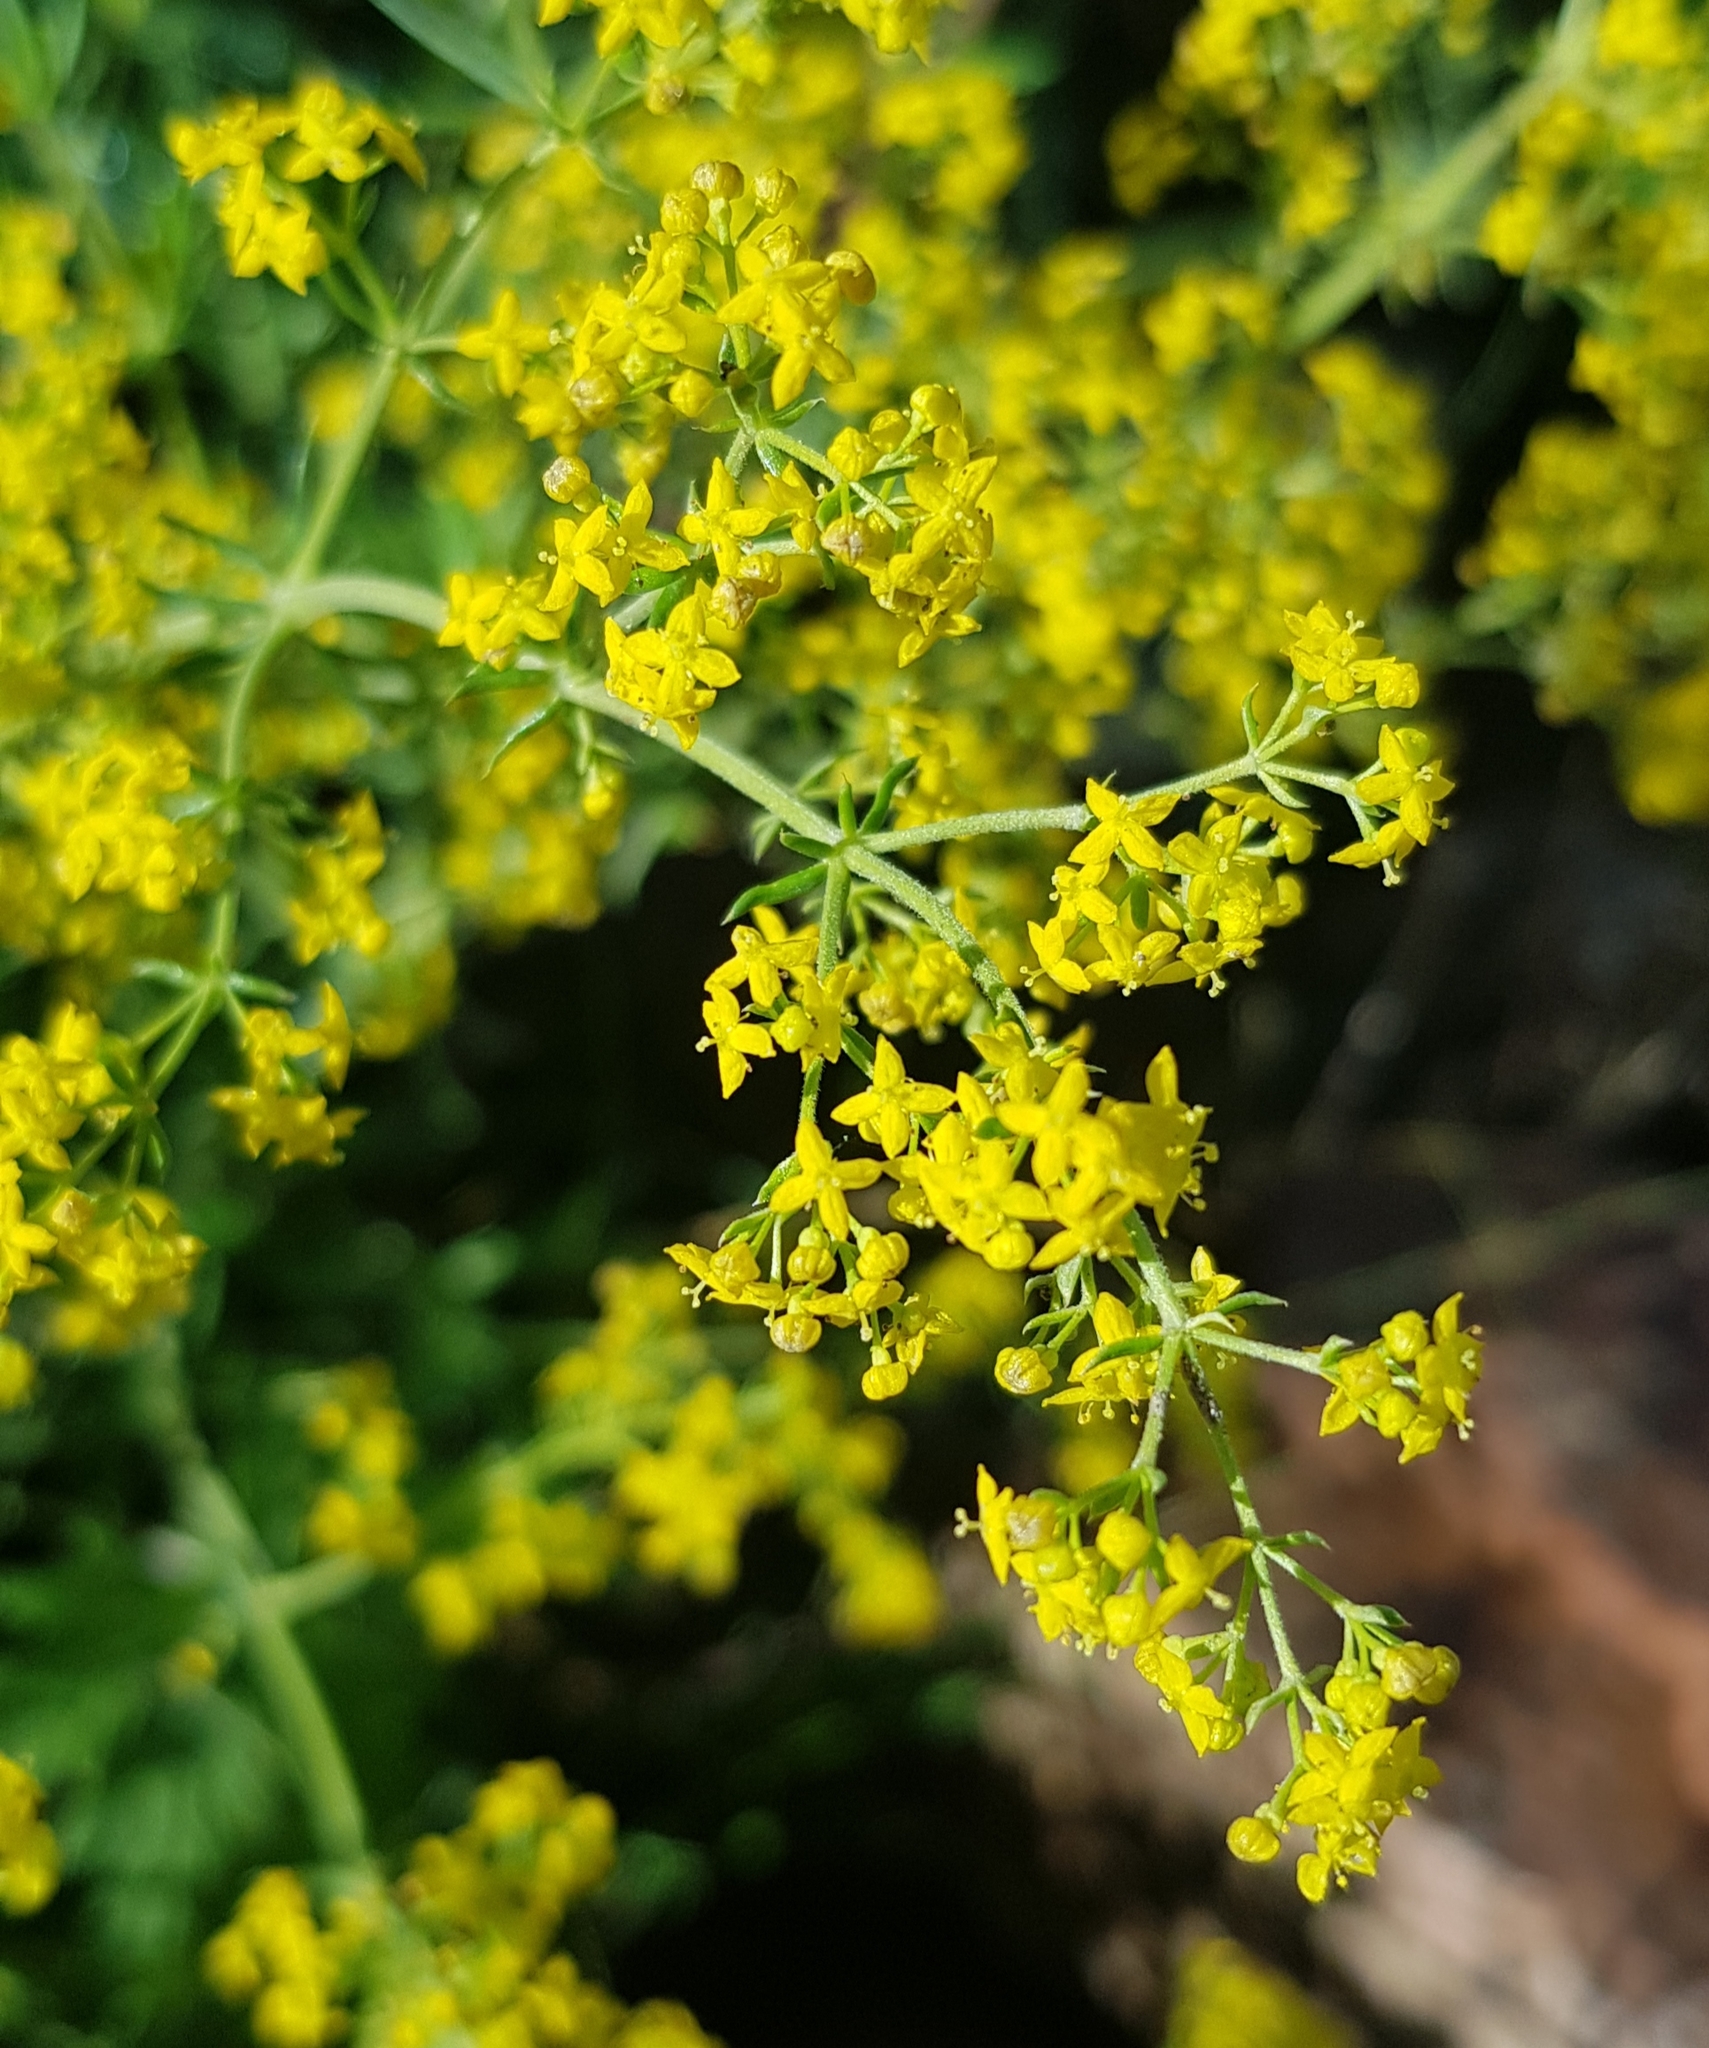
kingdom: Plantae
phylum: Tracheophyta
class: Magnoliopsida
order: Gentianales
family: Rubiaceae
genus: Galium
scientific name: Galium verum
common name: Lady's bedstraw
